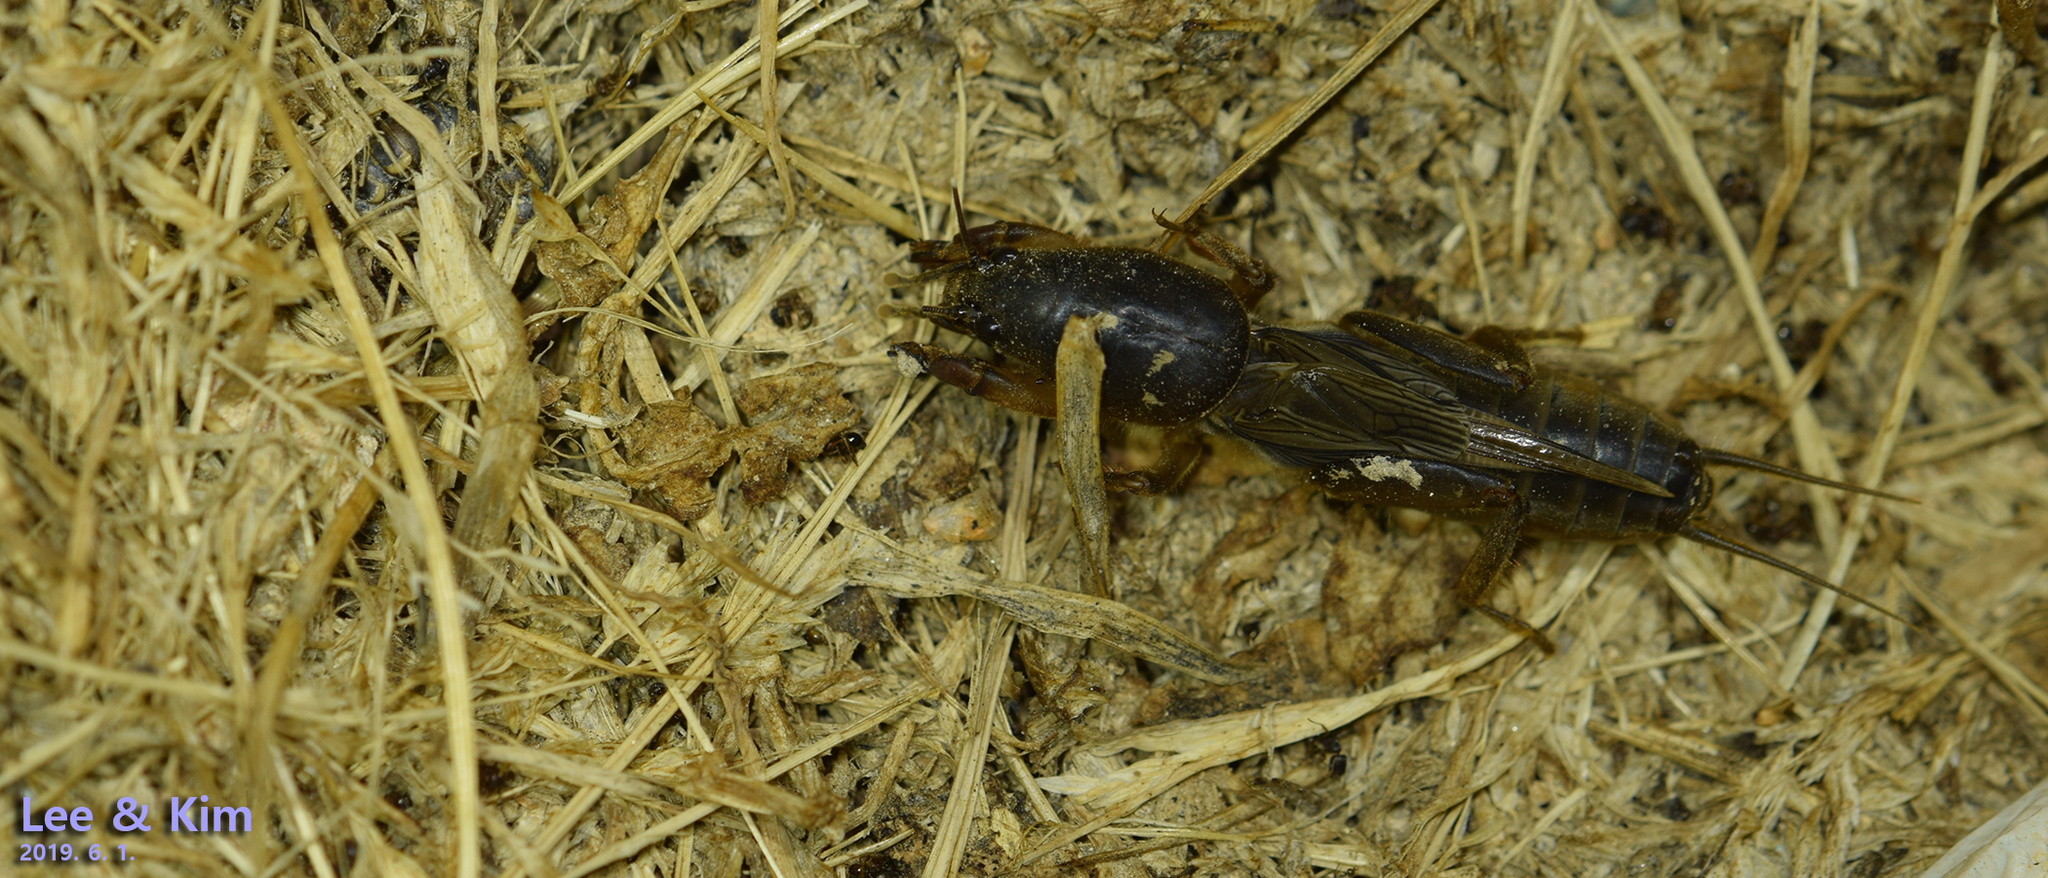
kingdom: Animalia
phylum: Arthropoda
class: Insecta
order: Orthoptera
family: Gryllotalpidae
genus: Gryllotalpa
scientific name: Gryllotalpa orientalis
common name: Grasshopper
